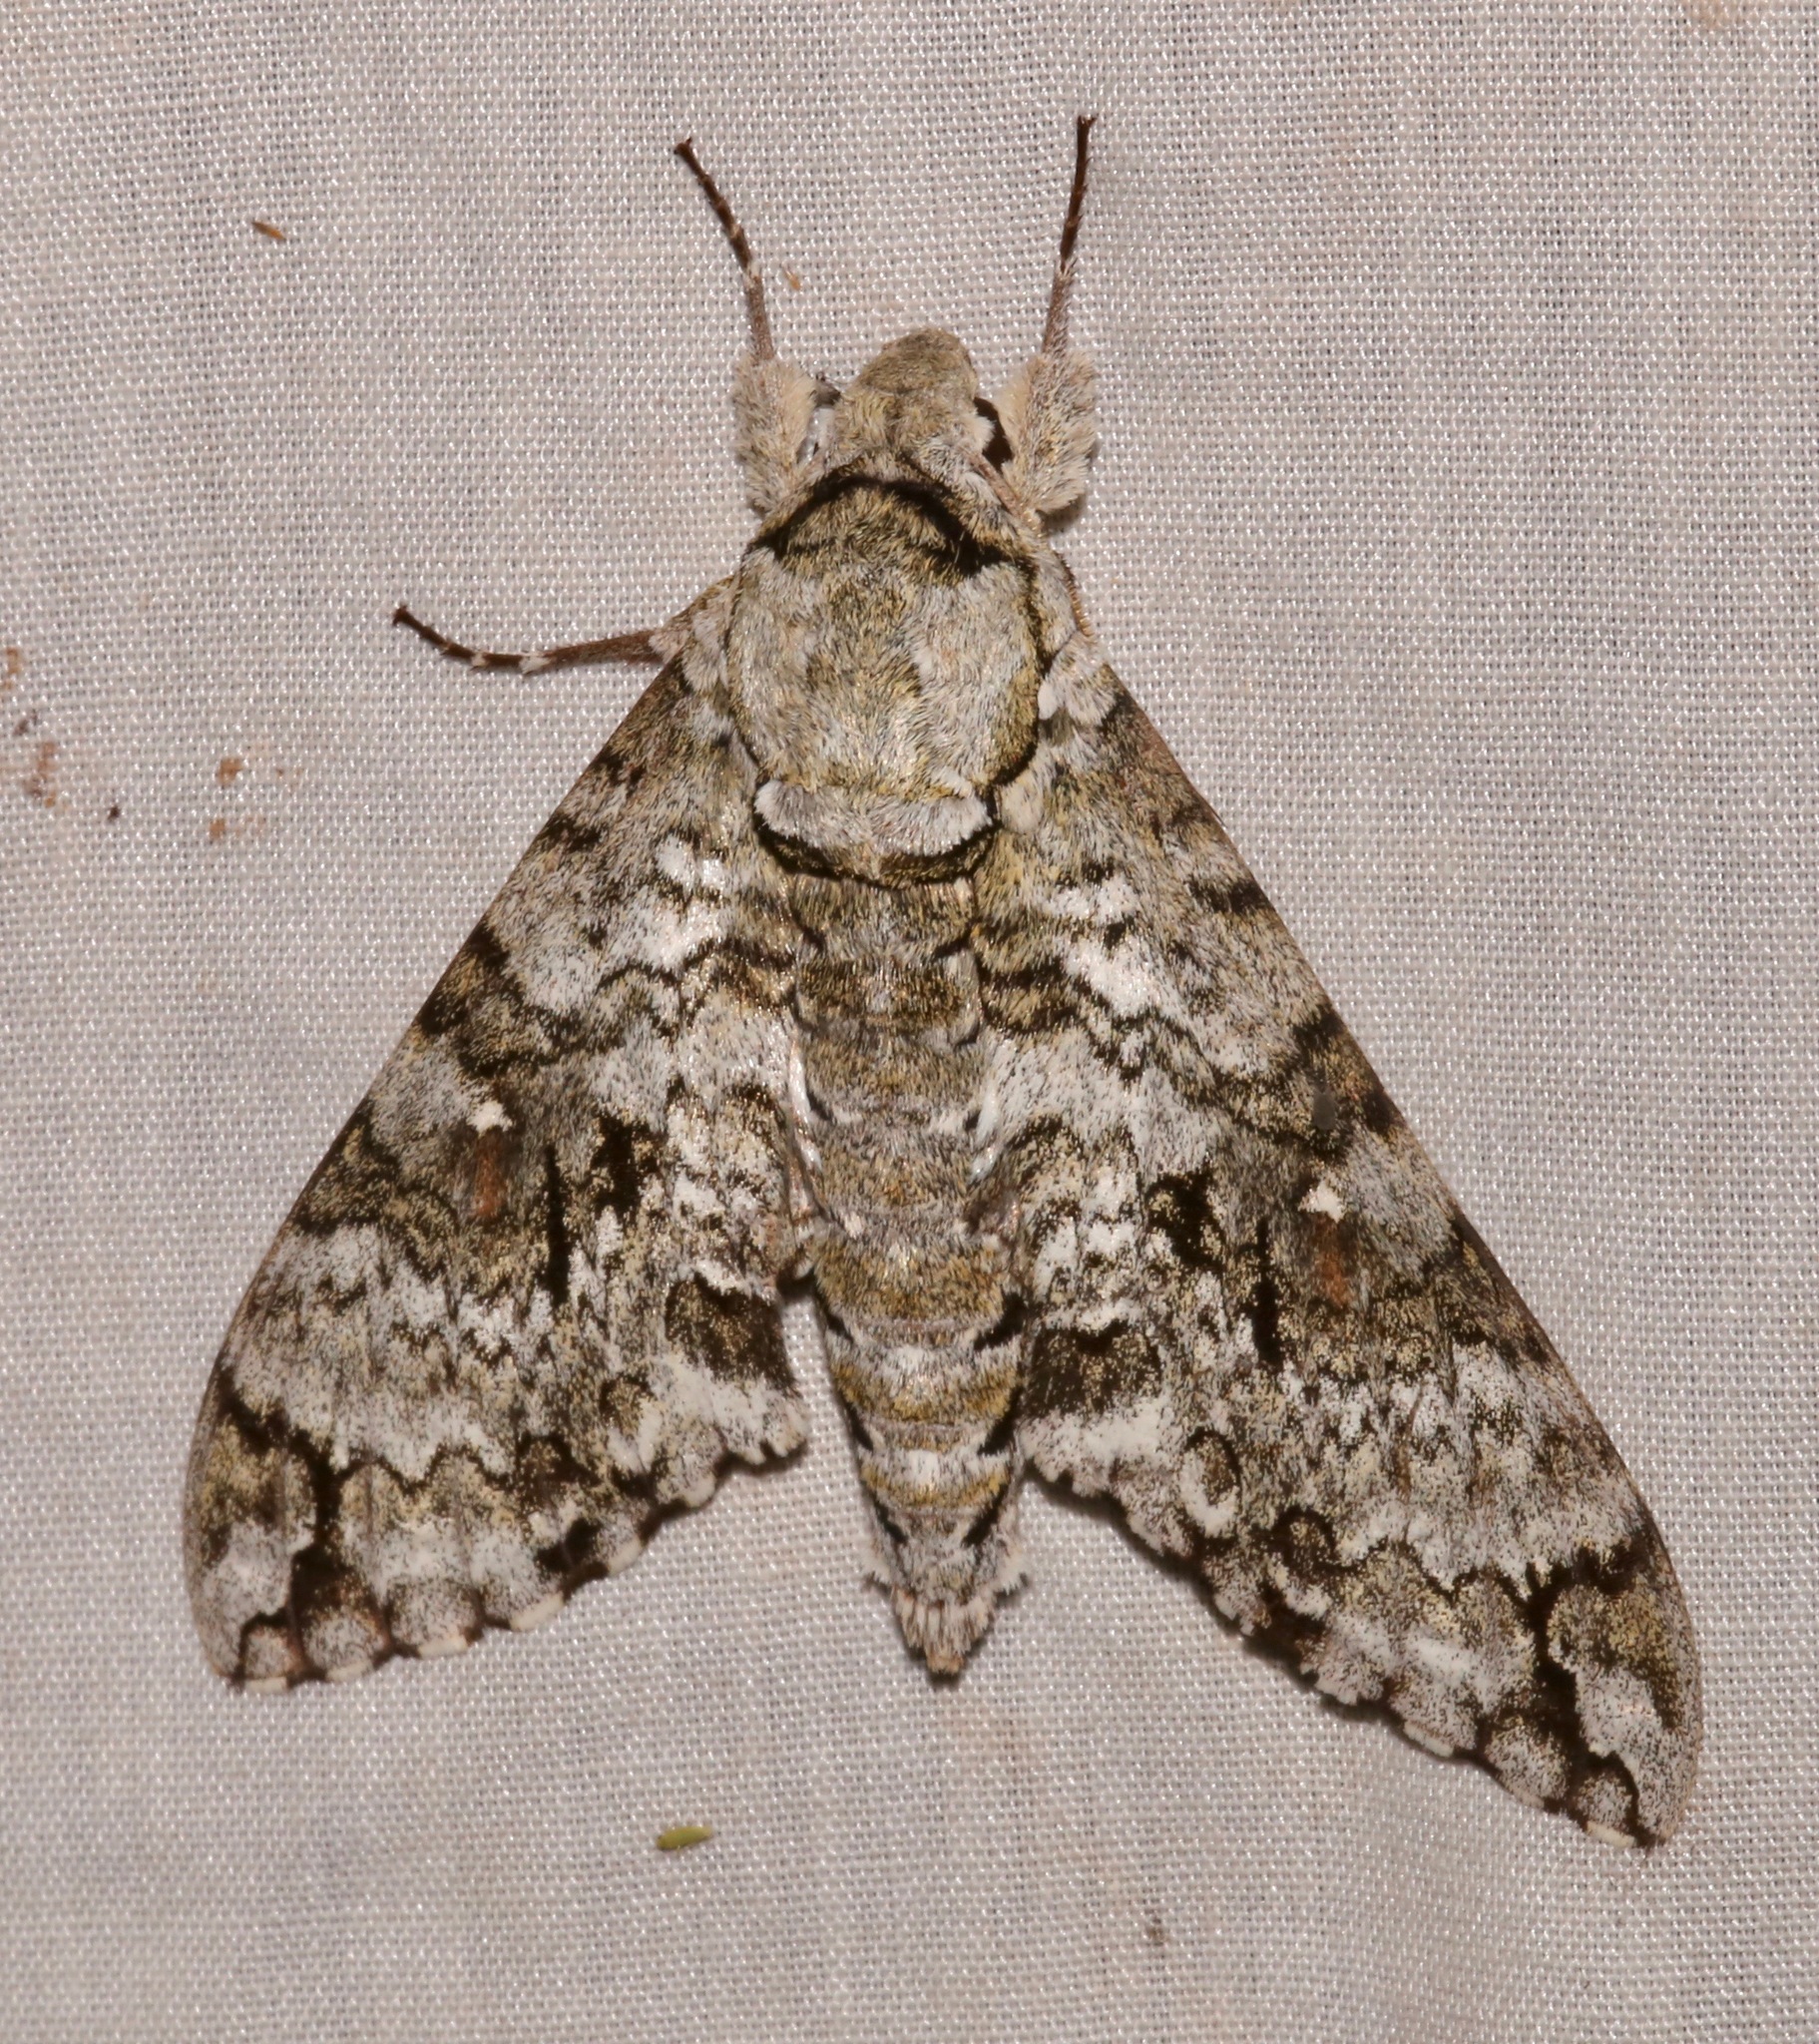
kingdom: Animalia
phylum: Arthropoda
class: Insecta
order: Lepidoptera
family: Sphingidae
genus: Manduca
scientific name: Manduca florestan
